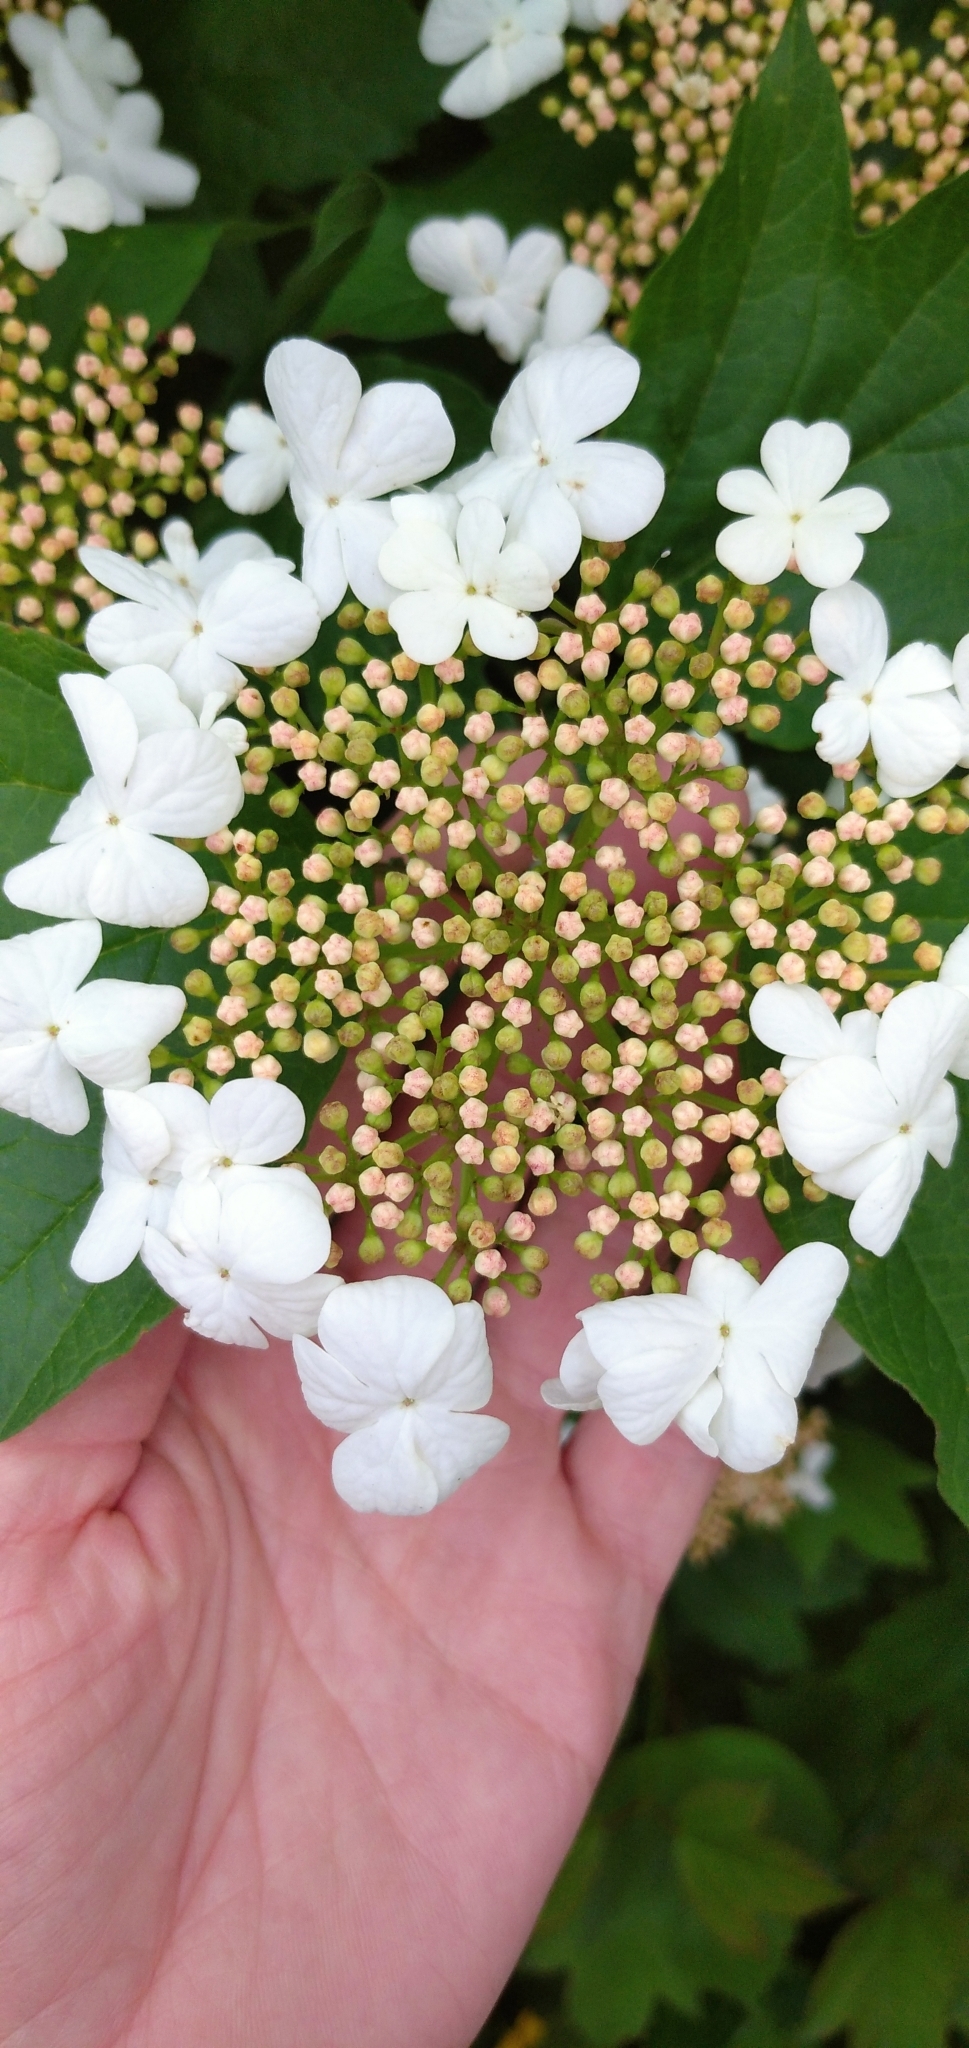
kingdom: Plantae
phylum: Tracheophyta
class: Magnoliopsida
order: Dipsacales
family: Viburnaceae
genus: Viburnum
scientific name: Viburnum opulus
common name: Guelder-rose
